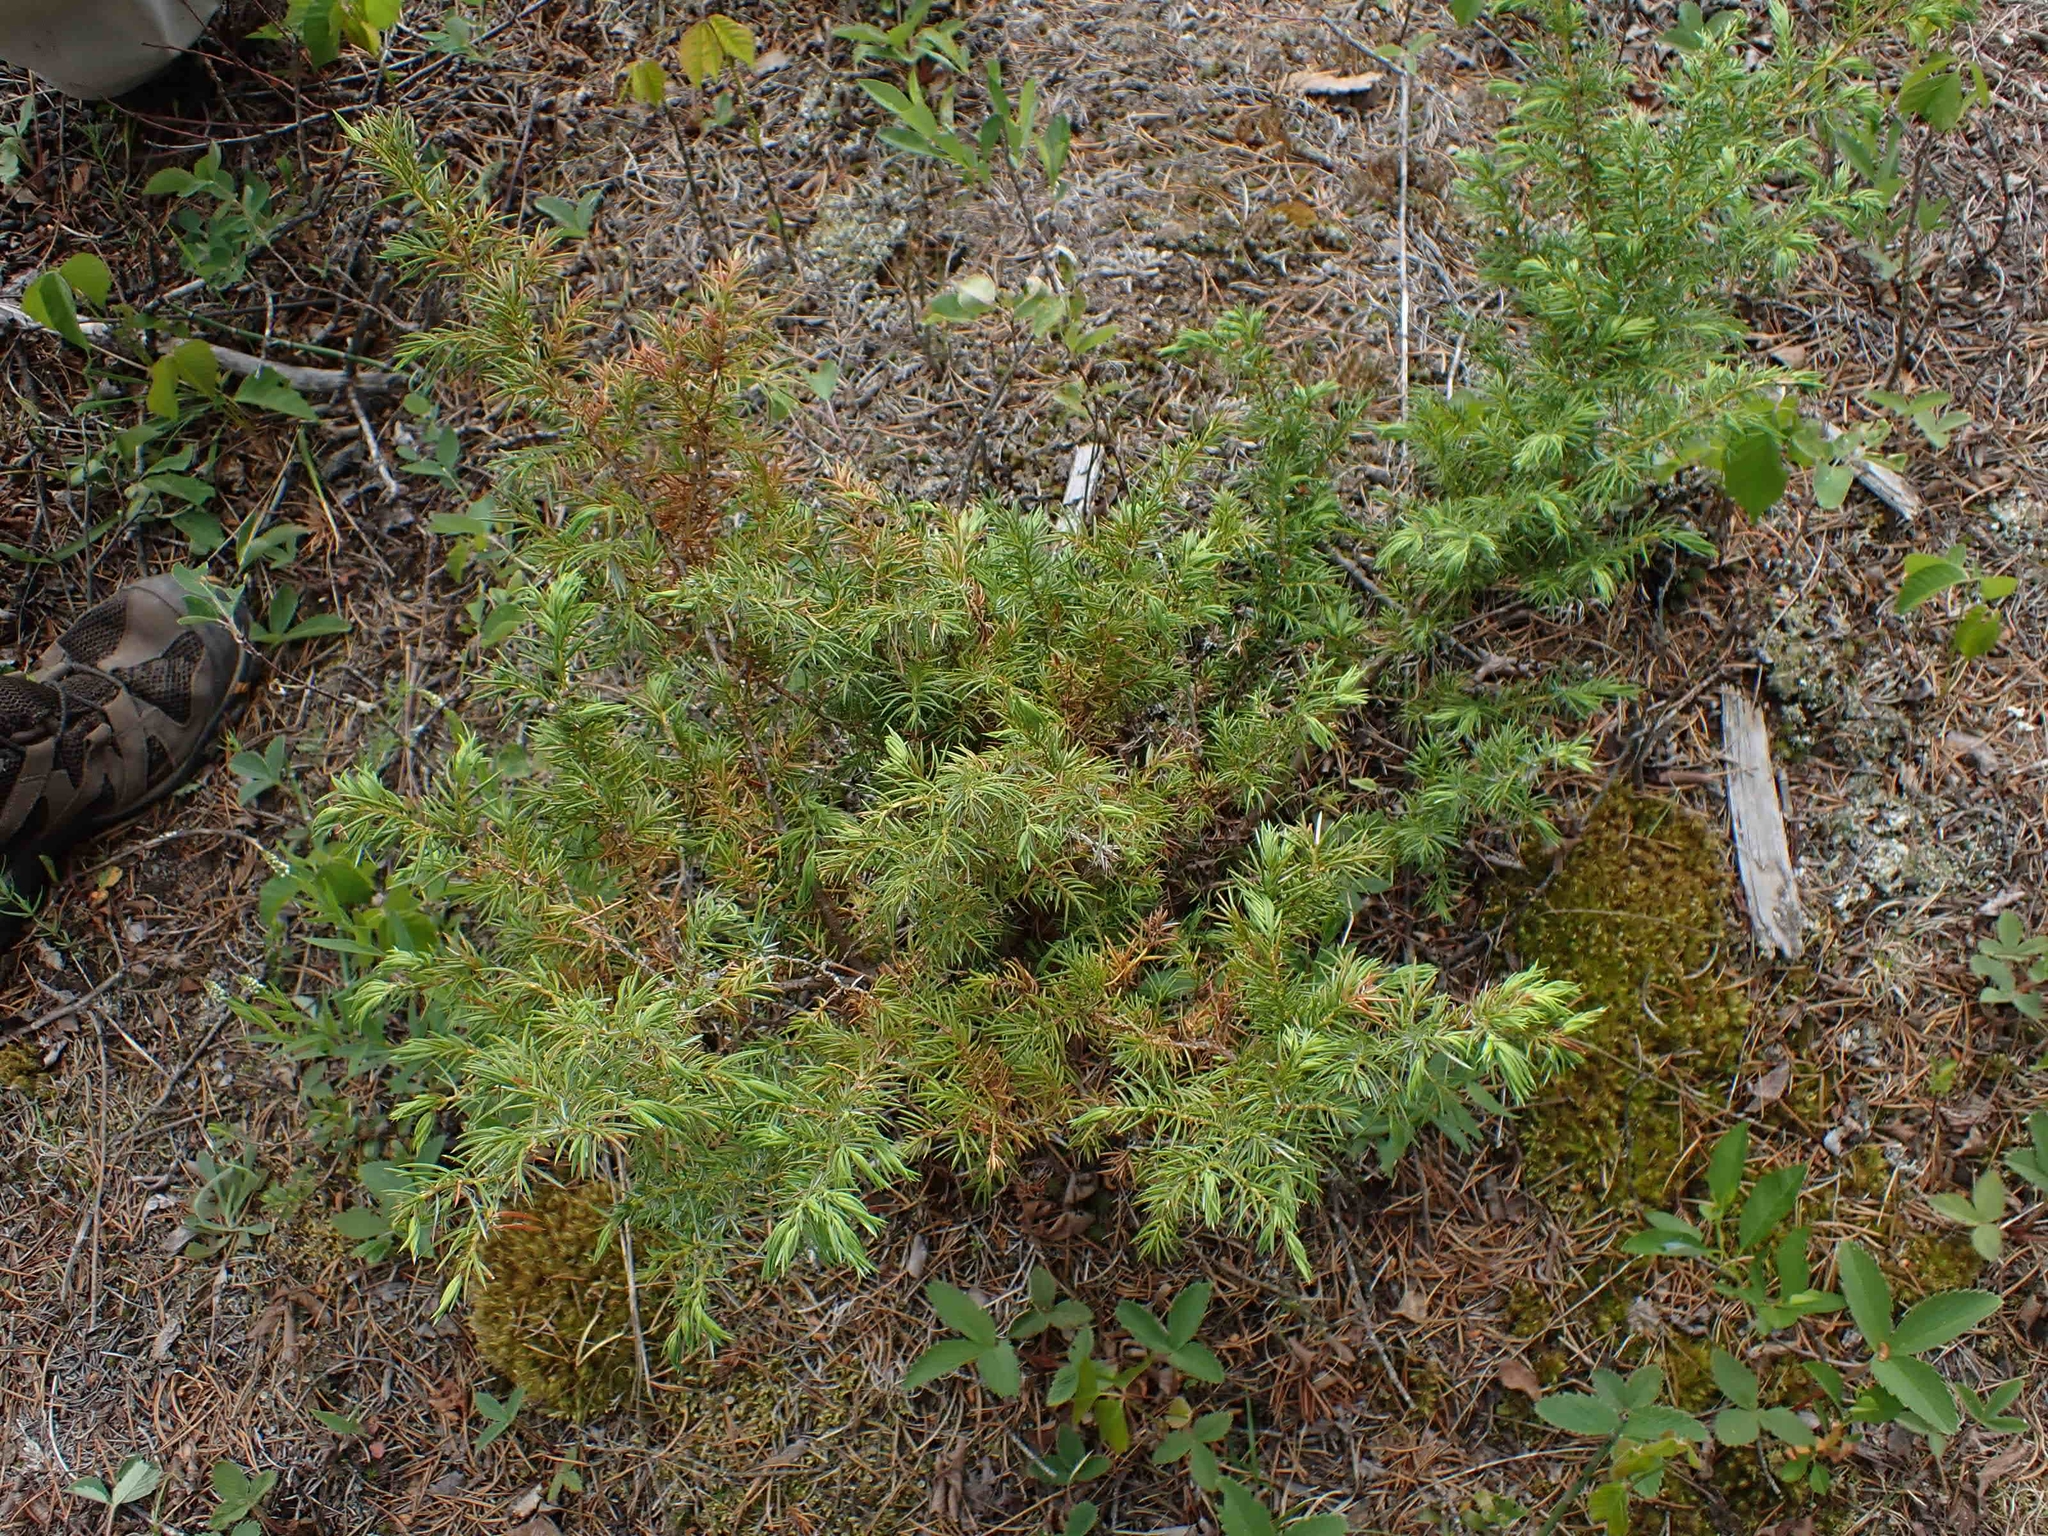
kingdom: Plantae
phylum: Tracheophyta
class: Pinopsida
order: Pinales
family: Cupressaceae
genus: Juniperus
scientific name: Juniperus communis
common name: Common juniper
